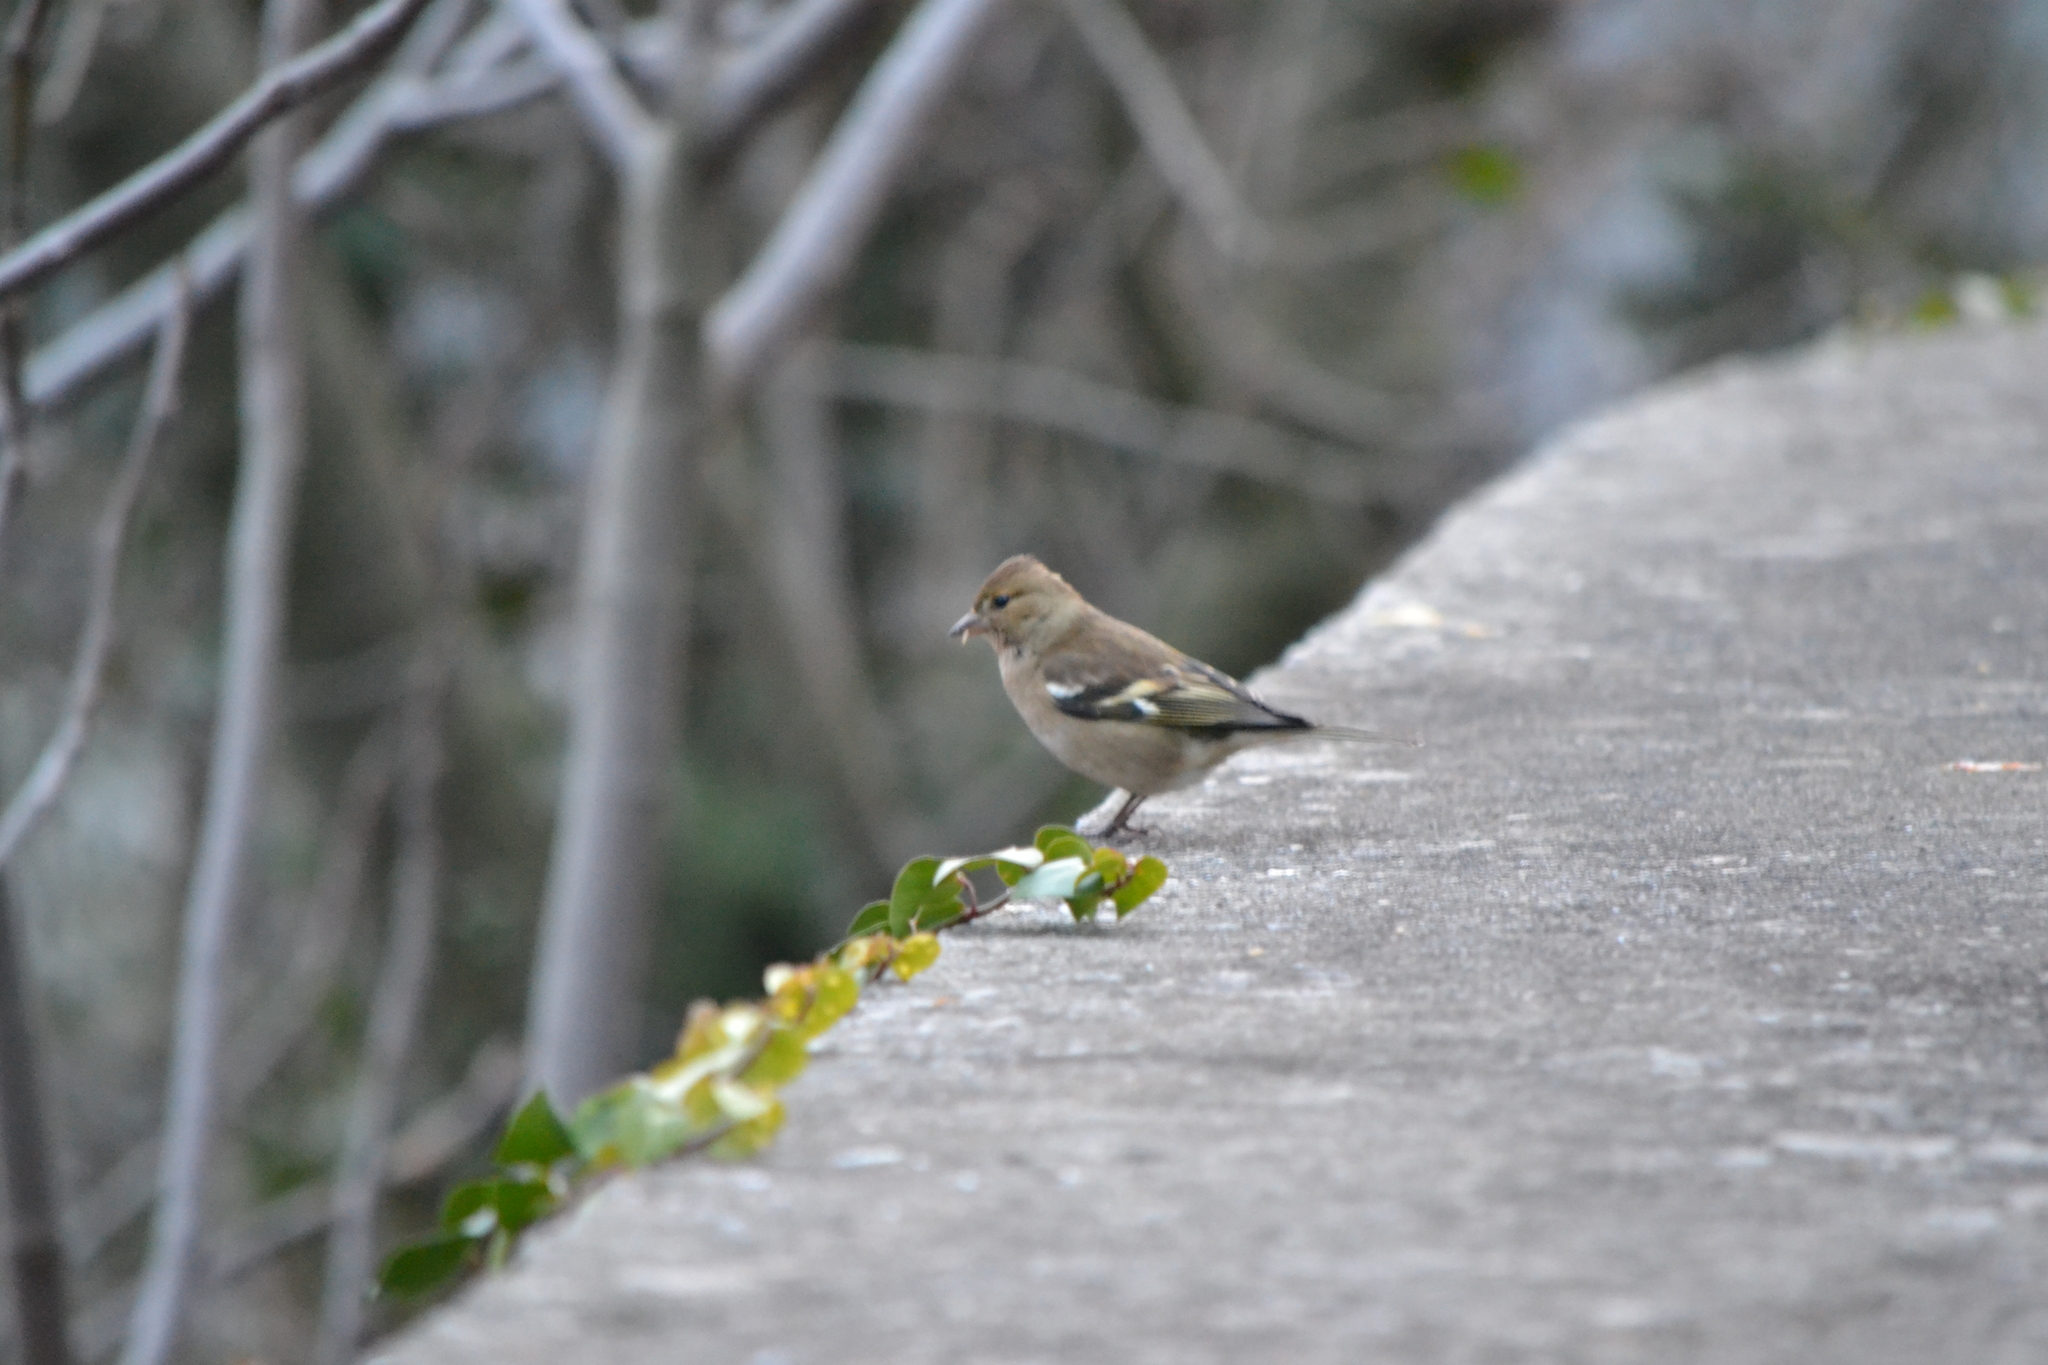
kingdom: Animalia
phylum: Chordata
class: Aves
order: Passeriformes
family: Fringillidae
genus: Fringilla
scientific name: Fringilla coelebs
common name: Common chaffinch
